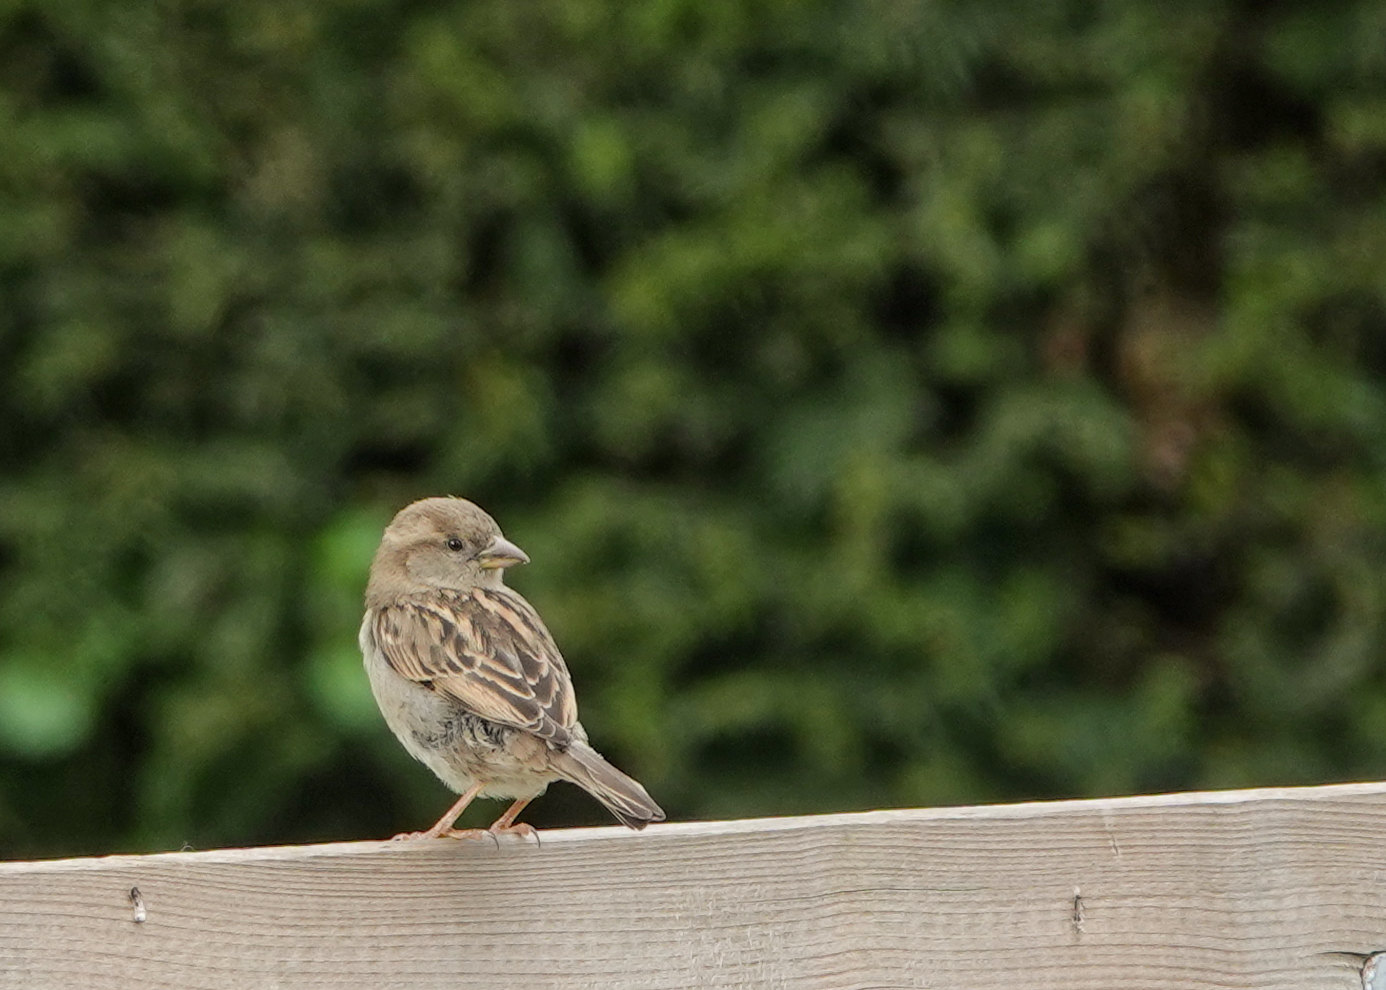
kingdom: Animalia
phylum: Chordata
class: Aves
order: Passeriformes
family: Passeridae
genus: Passer
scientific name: Passer domesticus
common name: House sparrow
